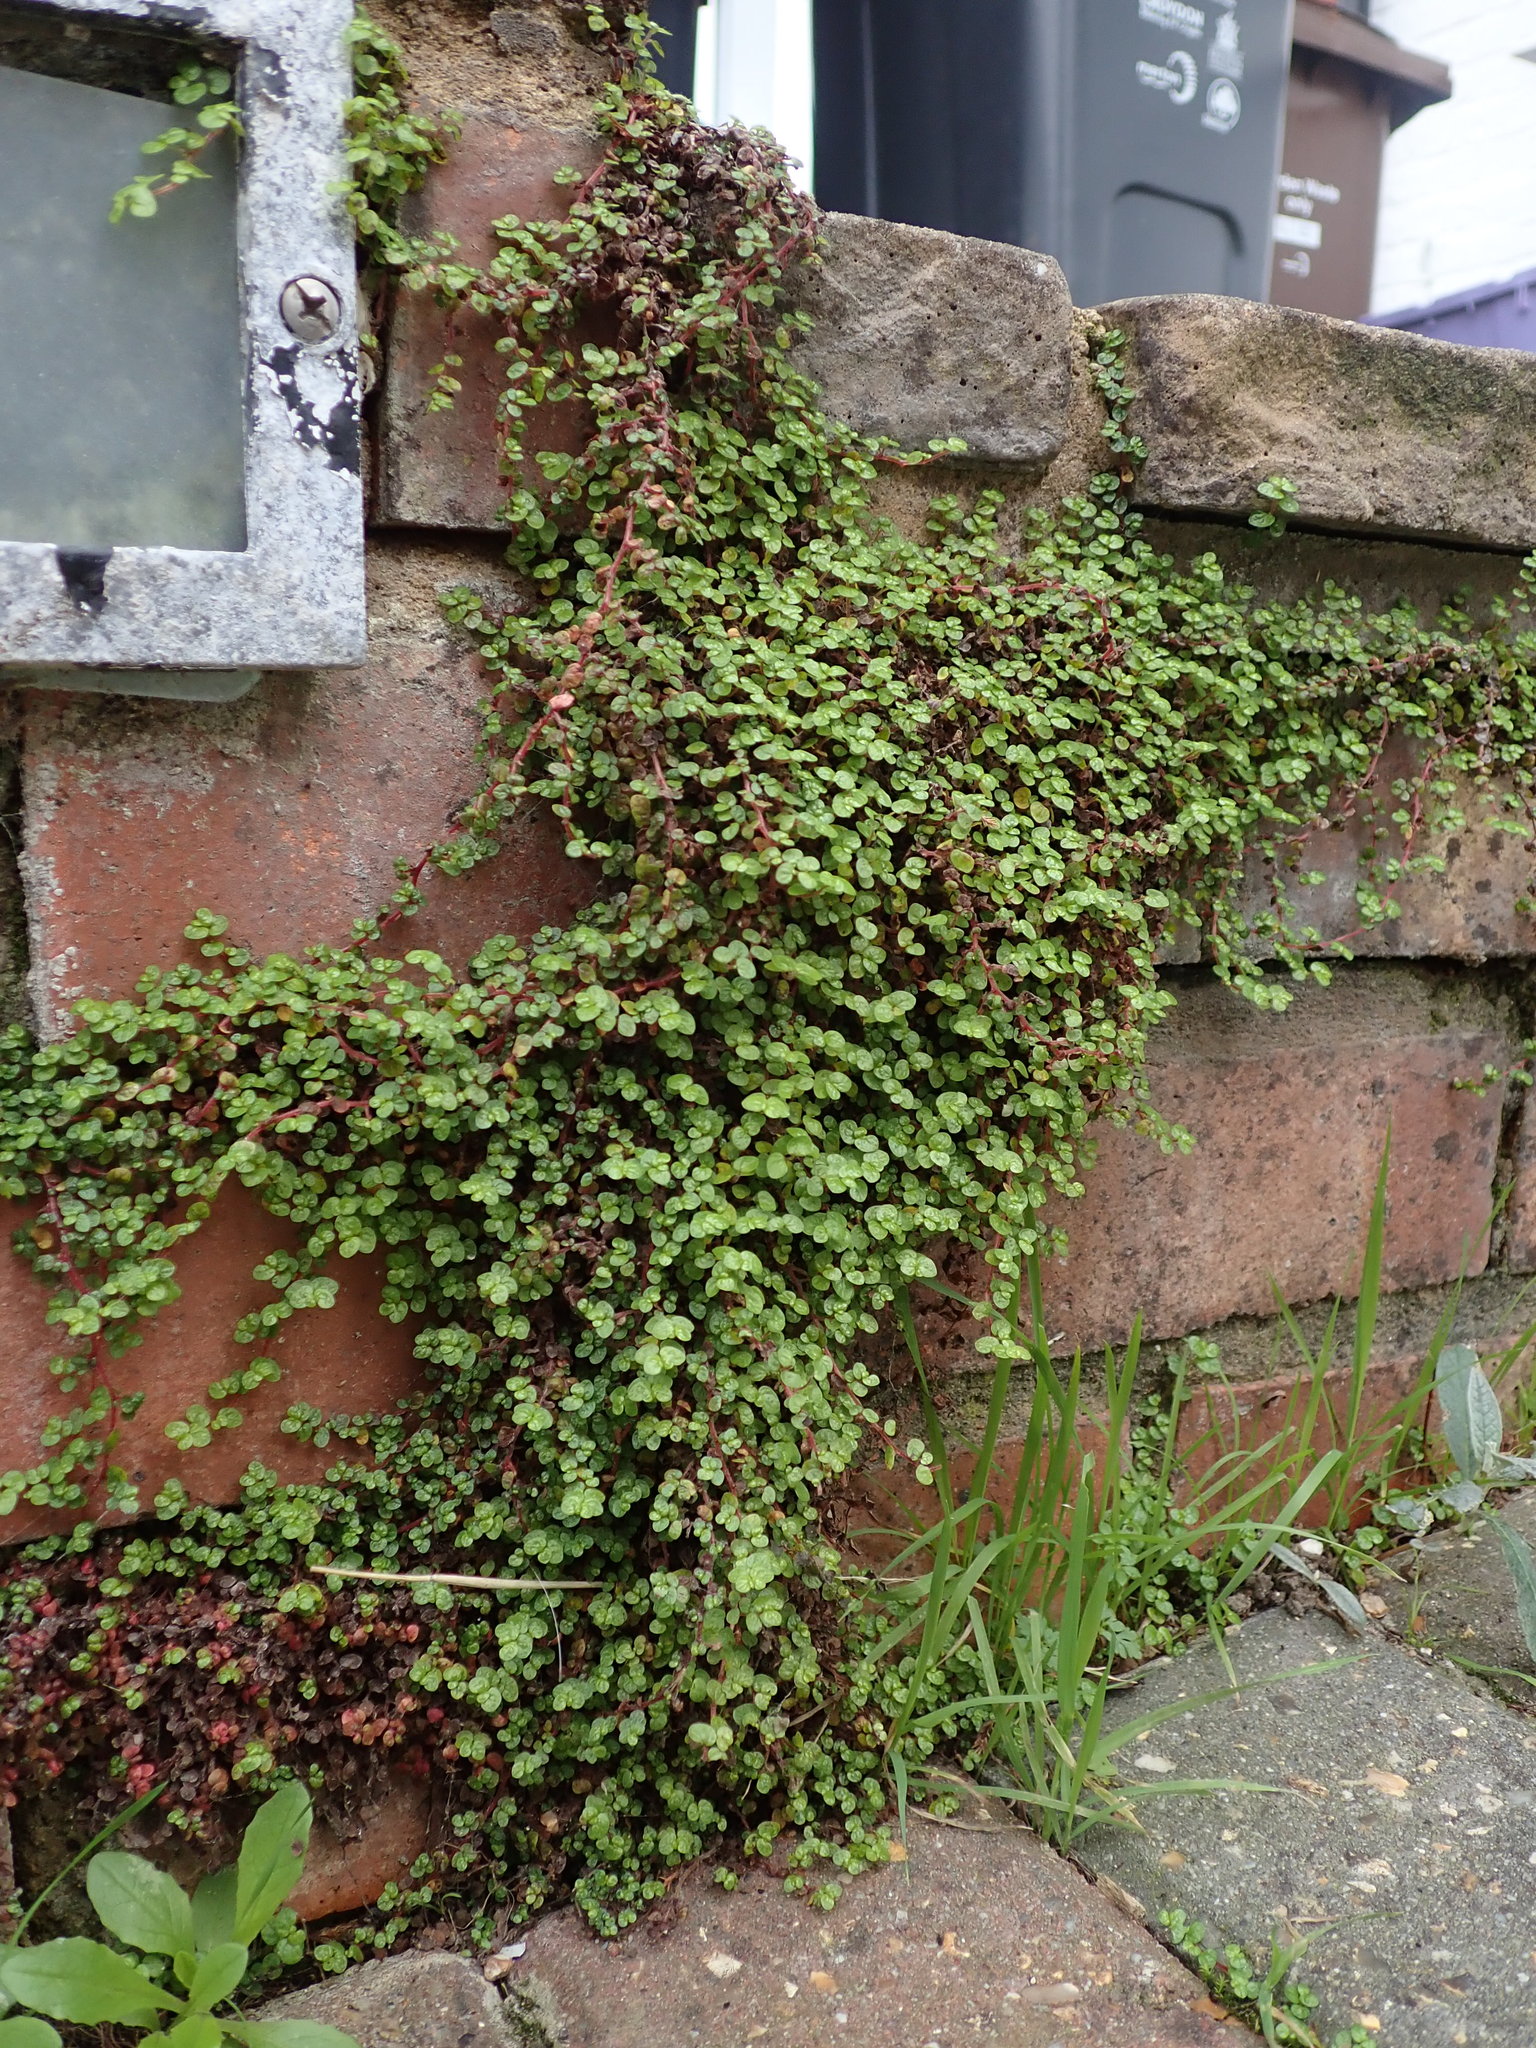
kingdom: Plantae
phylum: Tracheophyta
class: Magnoliopsida
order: Rosales
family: Urticaceae
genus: Soleirolia
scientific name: Soleirolia soleirolii
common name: Mind-your-own-business
